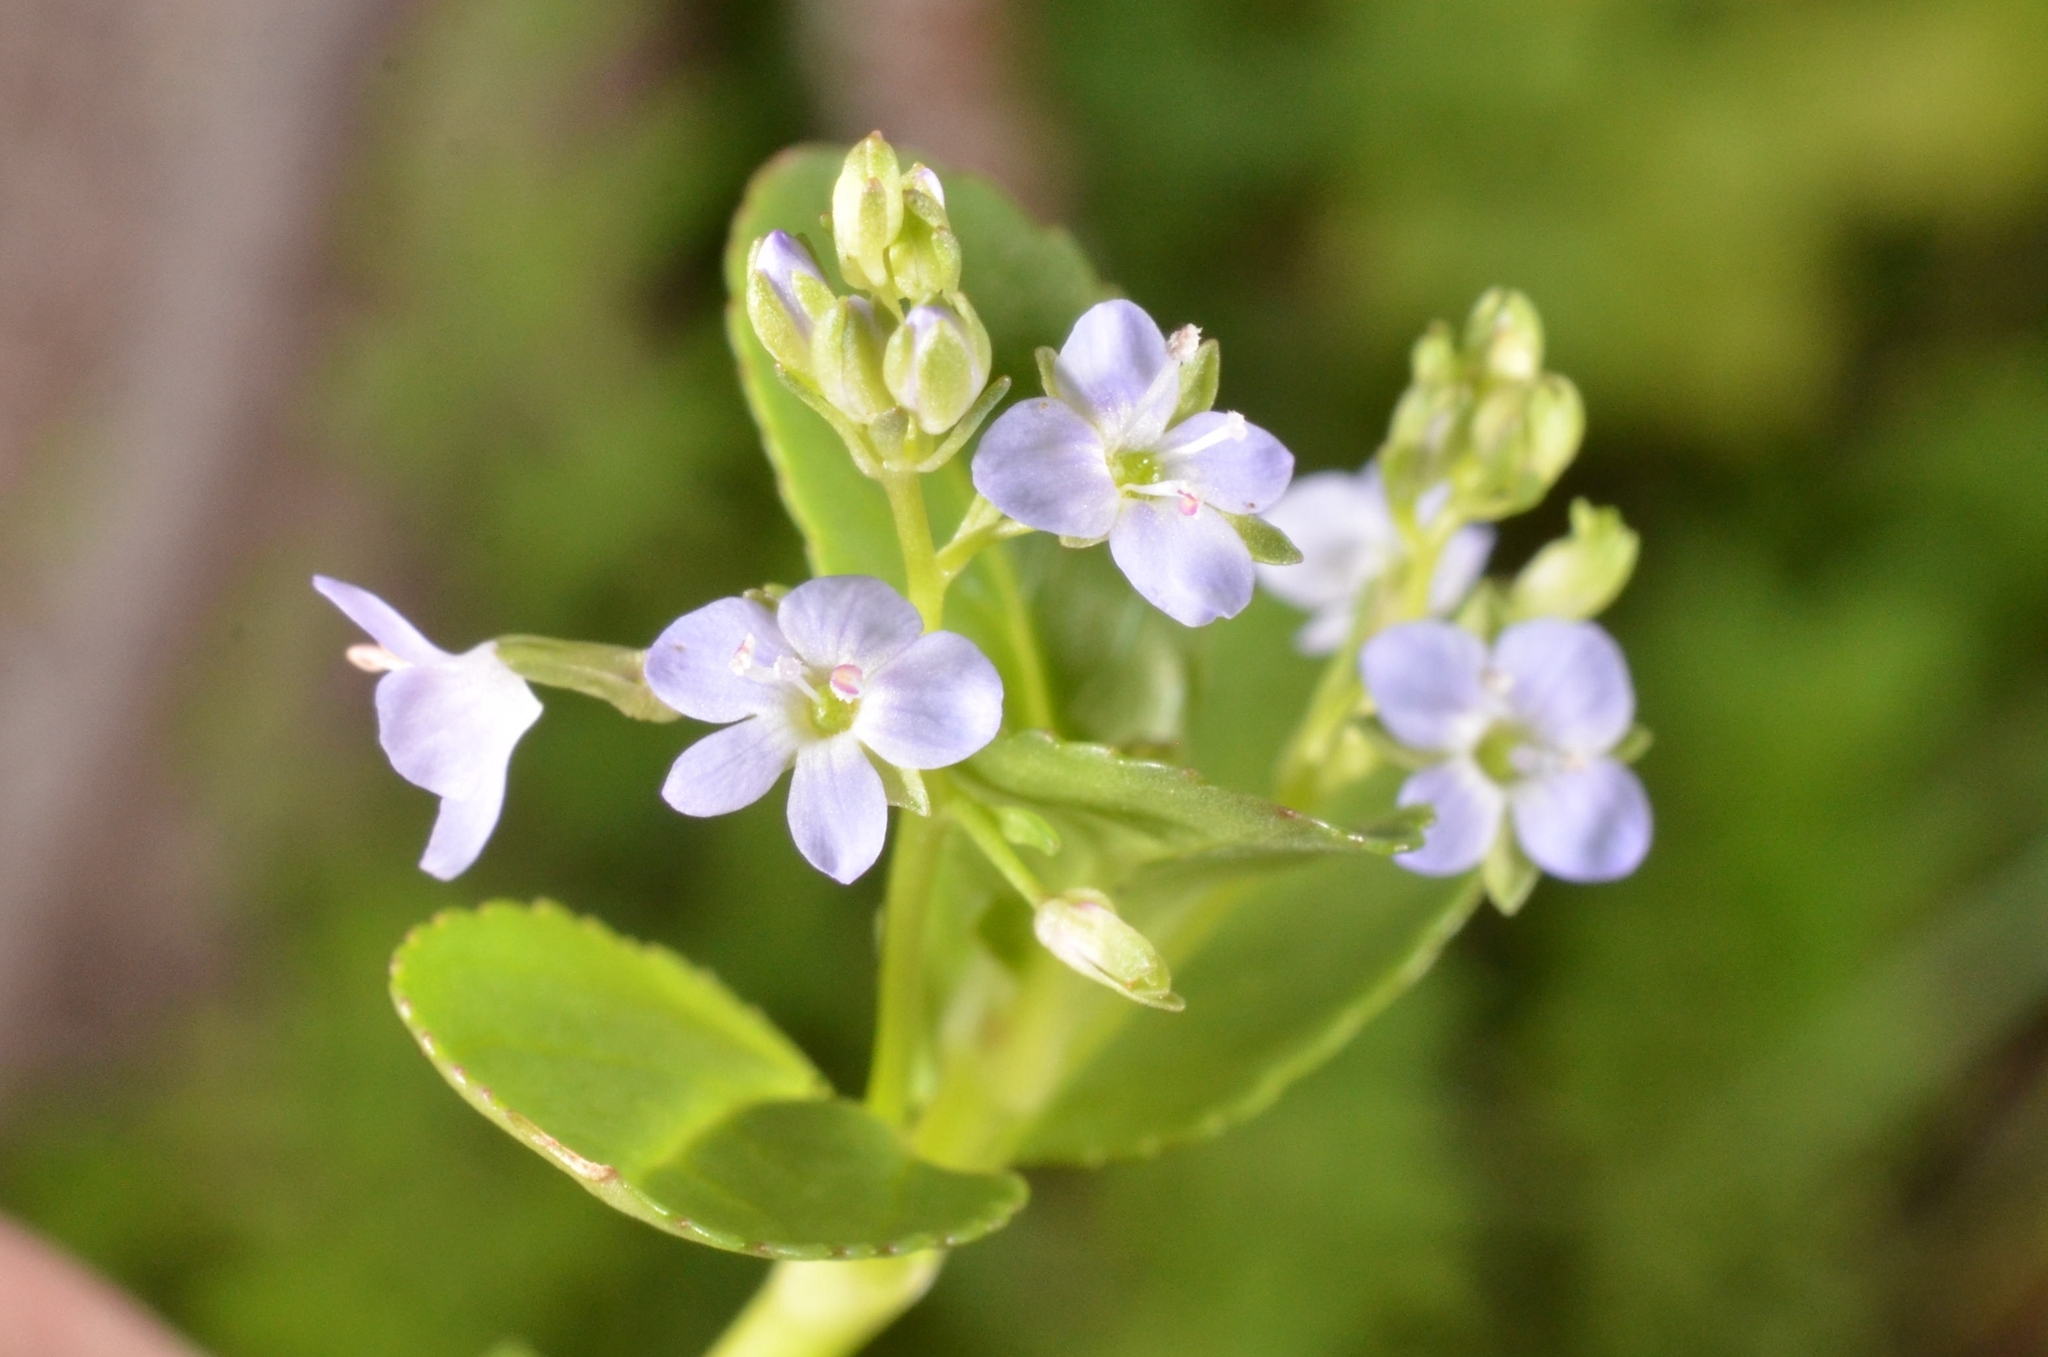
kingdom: Plantae
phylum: Tracheophyta
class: Magnoliopsida
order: Lamiales
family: Plantaginaceae
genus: Veronica
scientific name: Veronica beccabunga
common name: Brooklime
